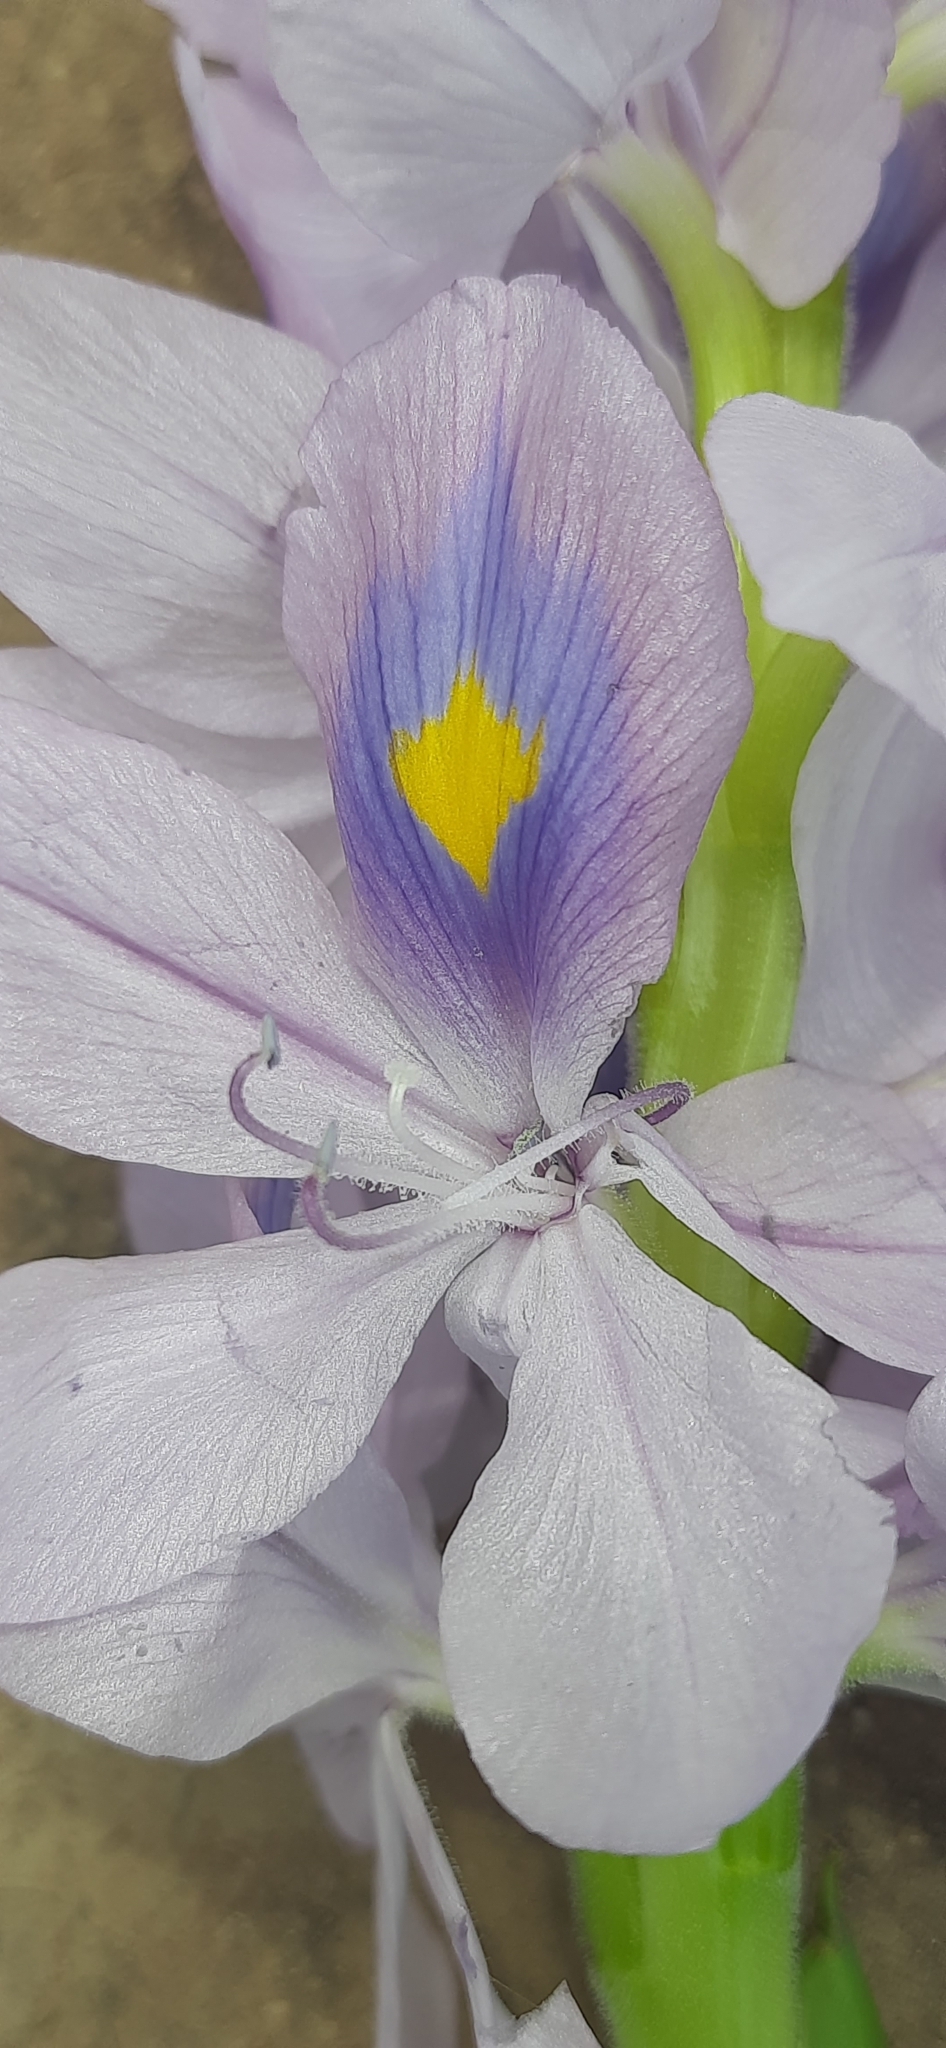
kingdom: Plantae
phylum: Tracheophyta
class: Liliopsida
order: Commelinales
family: Pontederiaceae
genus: Pontederia
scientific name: Pontederia crassipes
